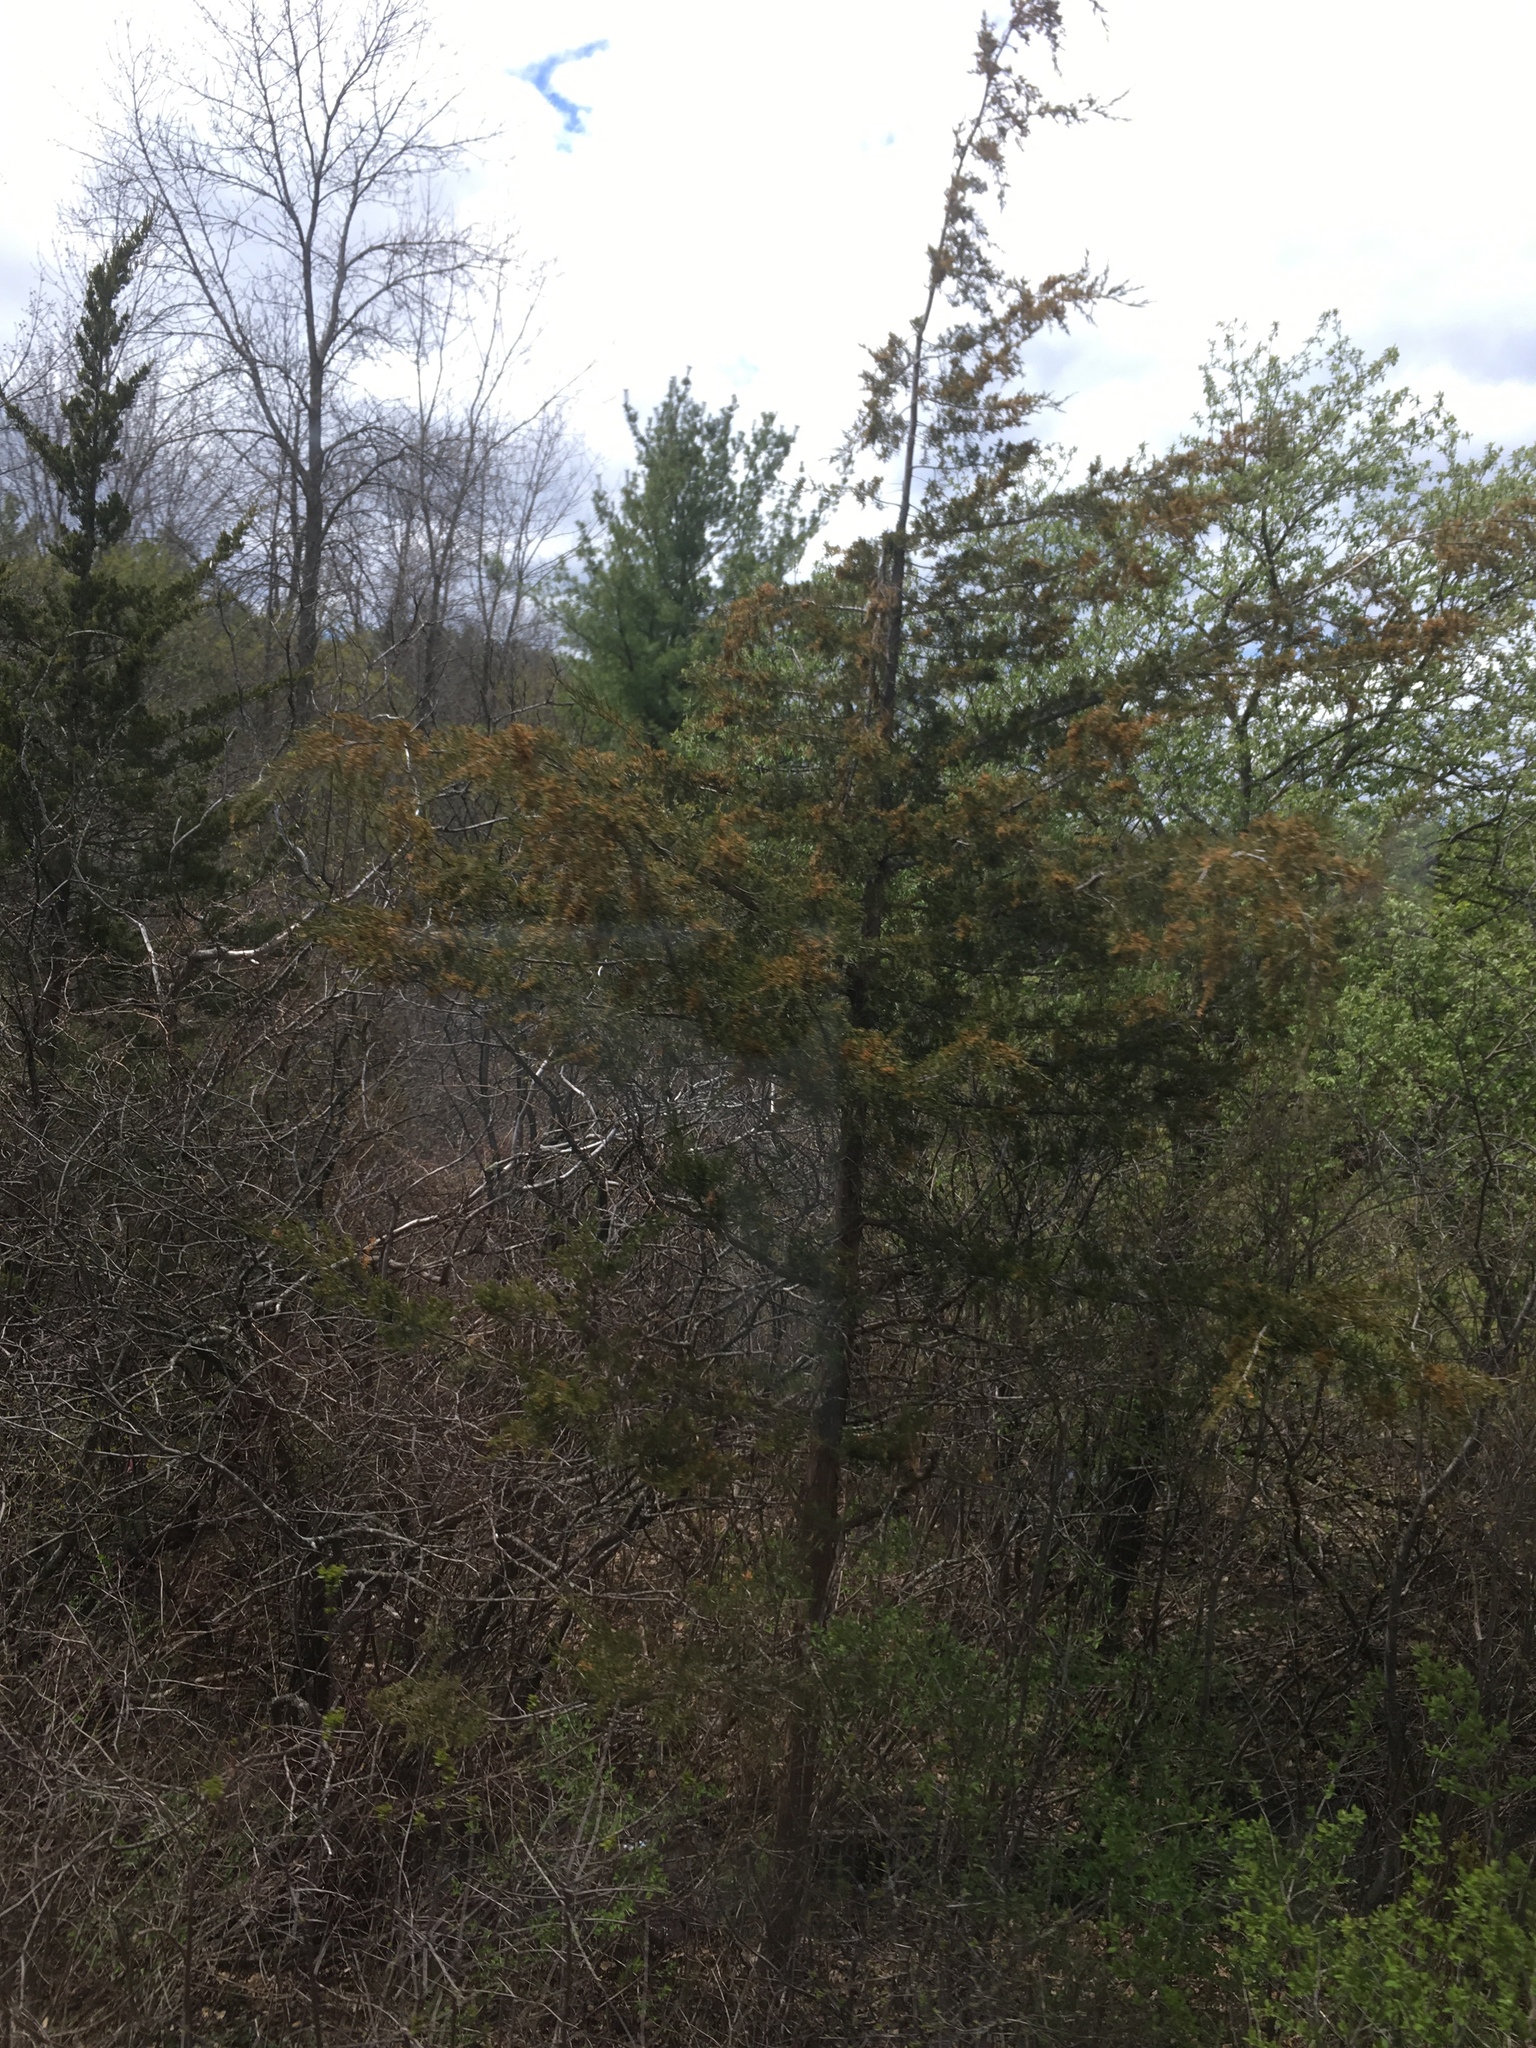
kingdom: Plantae
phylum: Tracheophyta
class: Pinopsida
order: Pinales
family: Cupressaceae
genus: Juniperus
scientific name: Juniperus virginiana
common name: Red juniper
